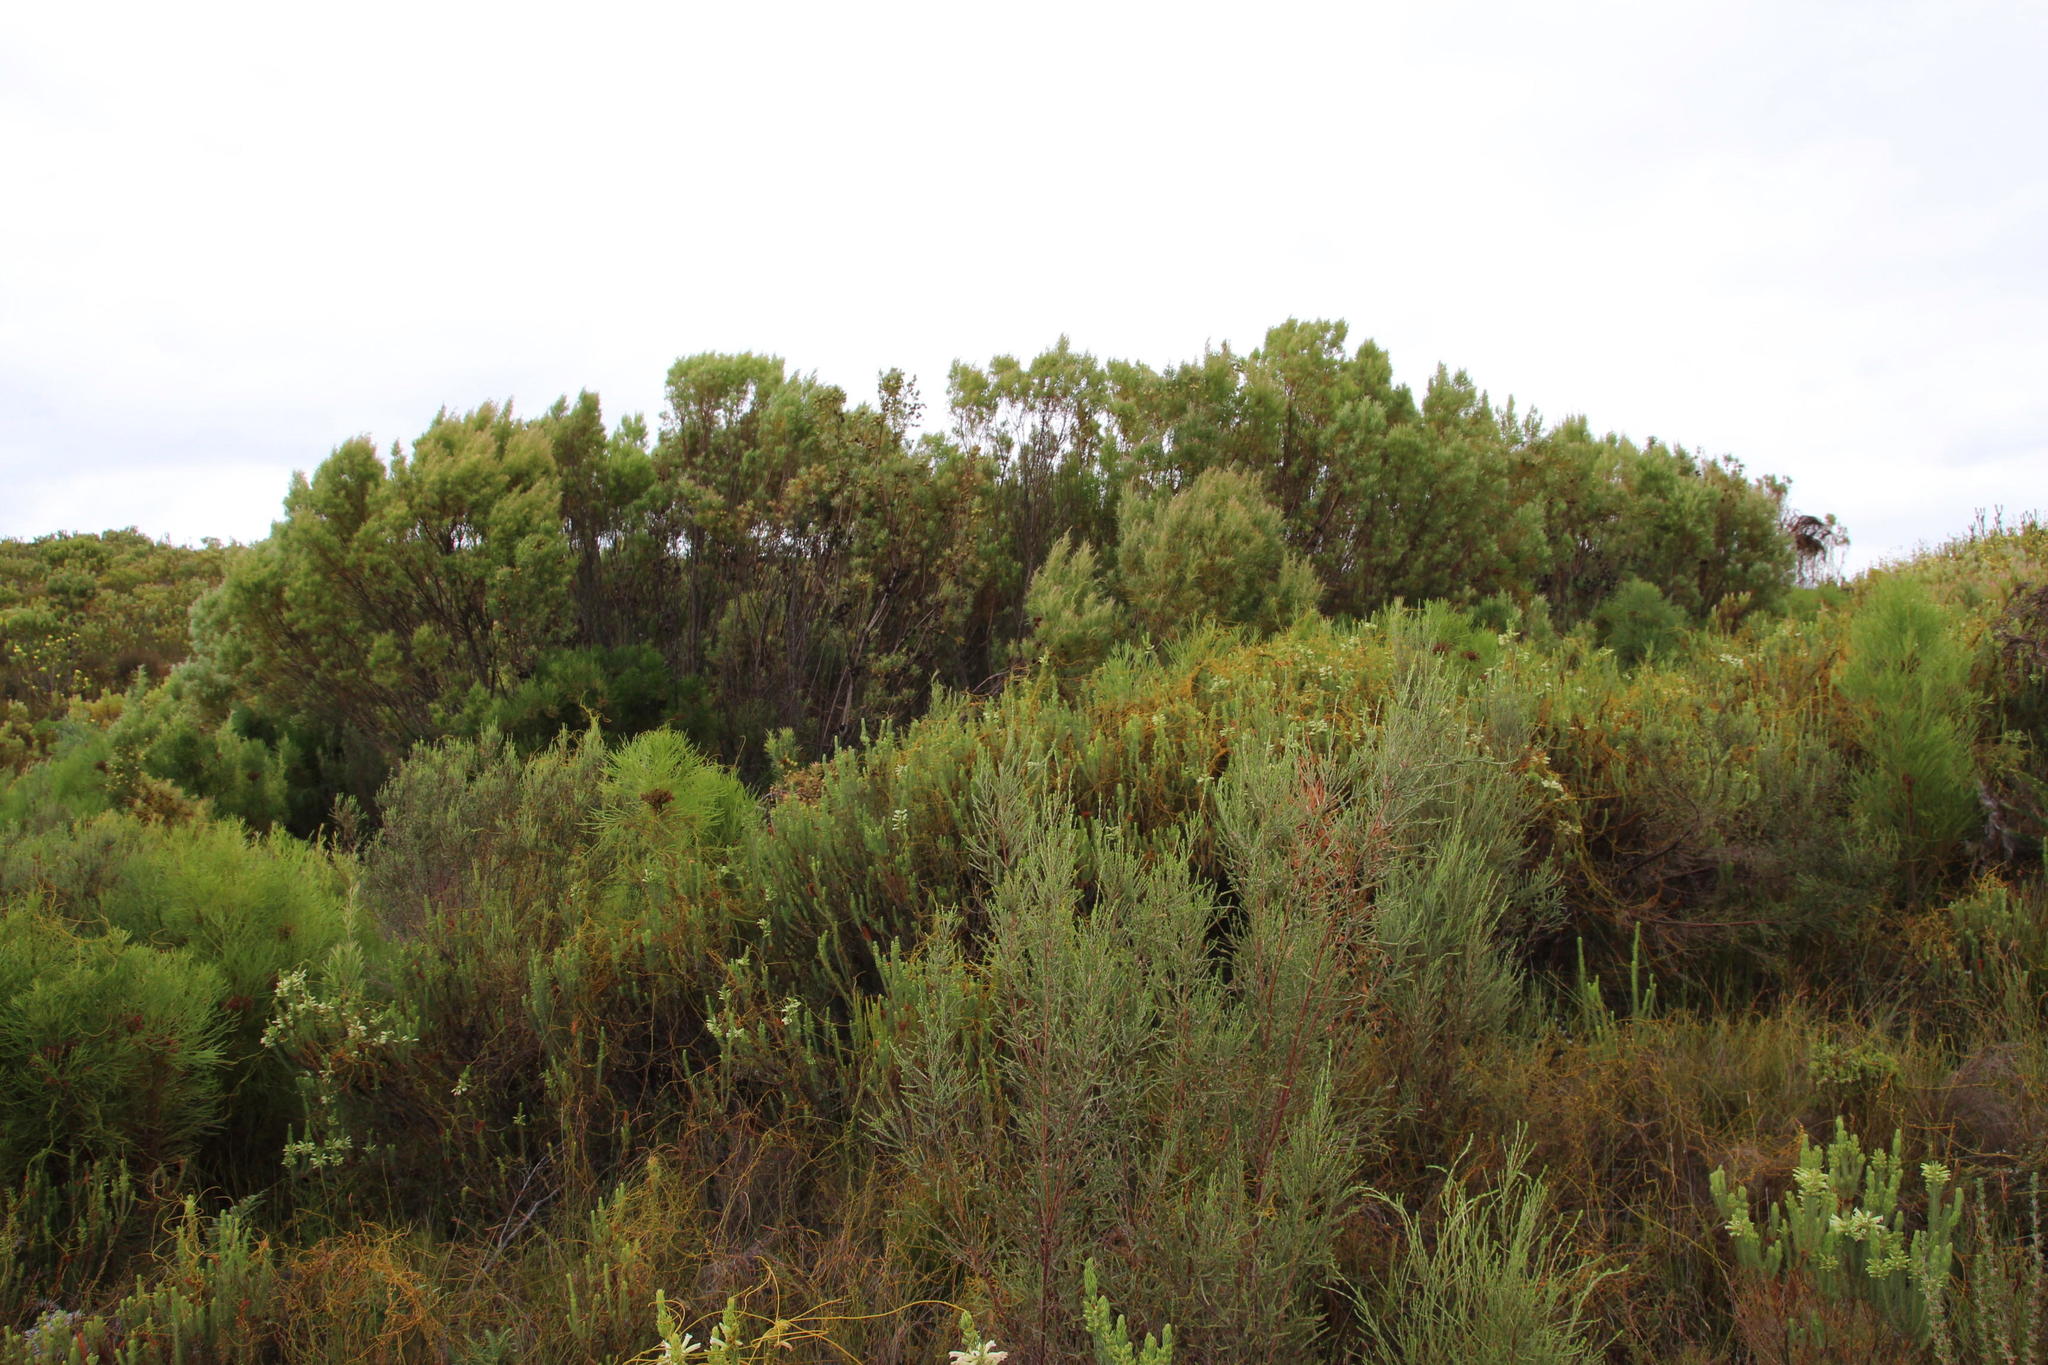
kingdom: Plantae
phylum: Tracheophyta
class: Magnoliopsida
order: Proteales
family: Proteaceae
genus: Leucadendron
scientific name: Leucadendron salicifolium
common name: Common stream conebush
